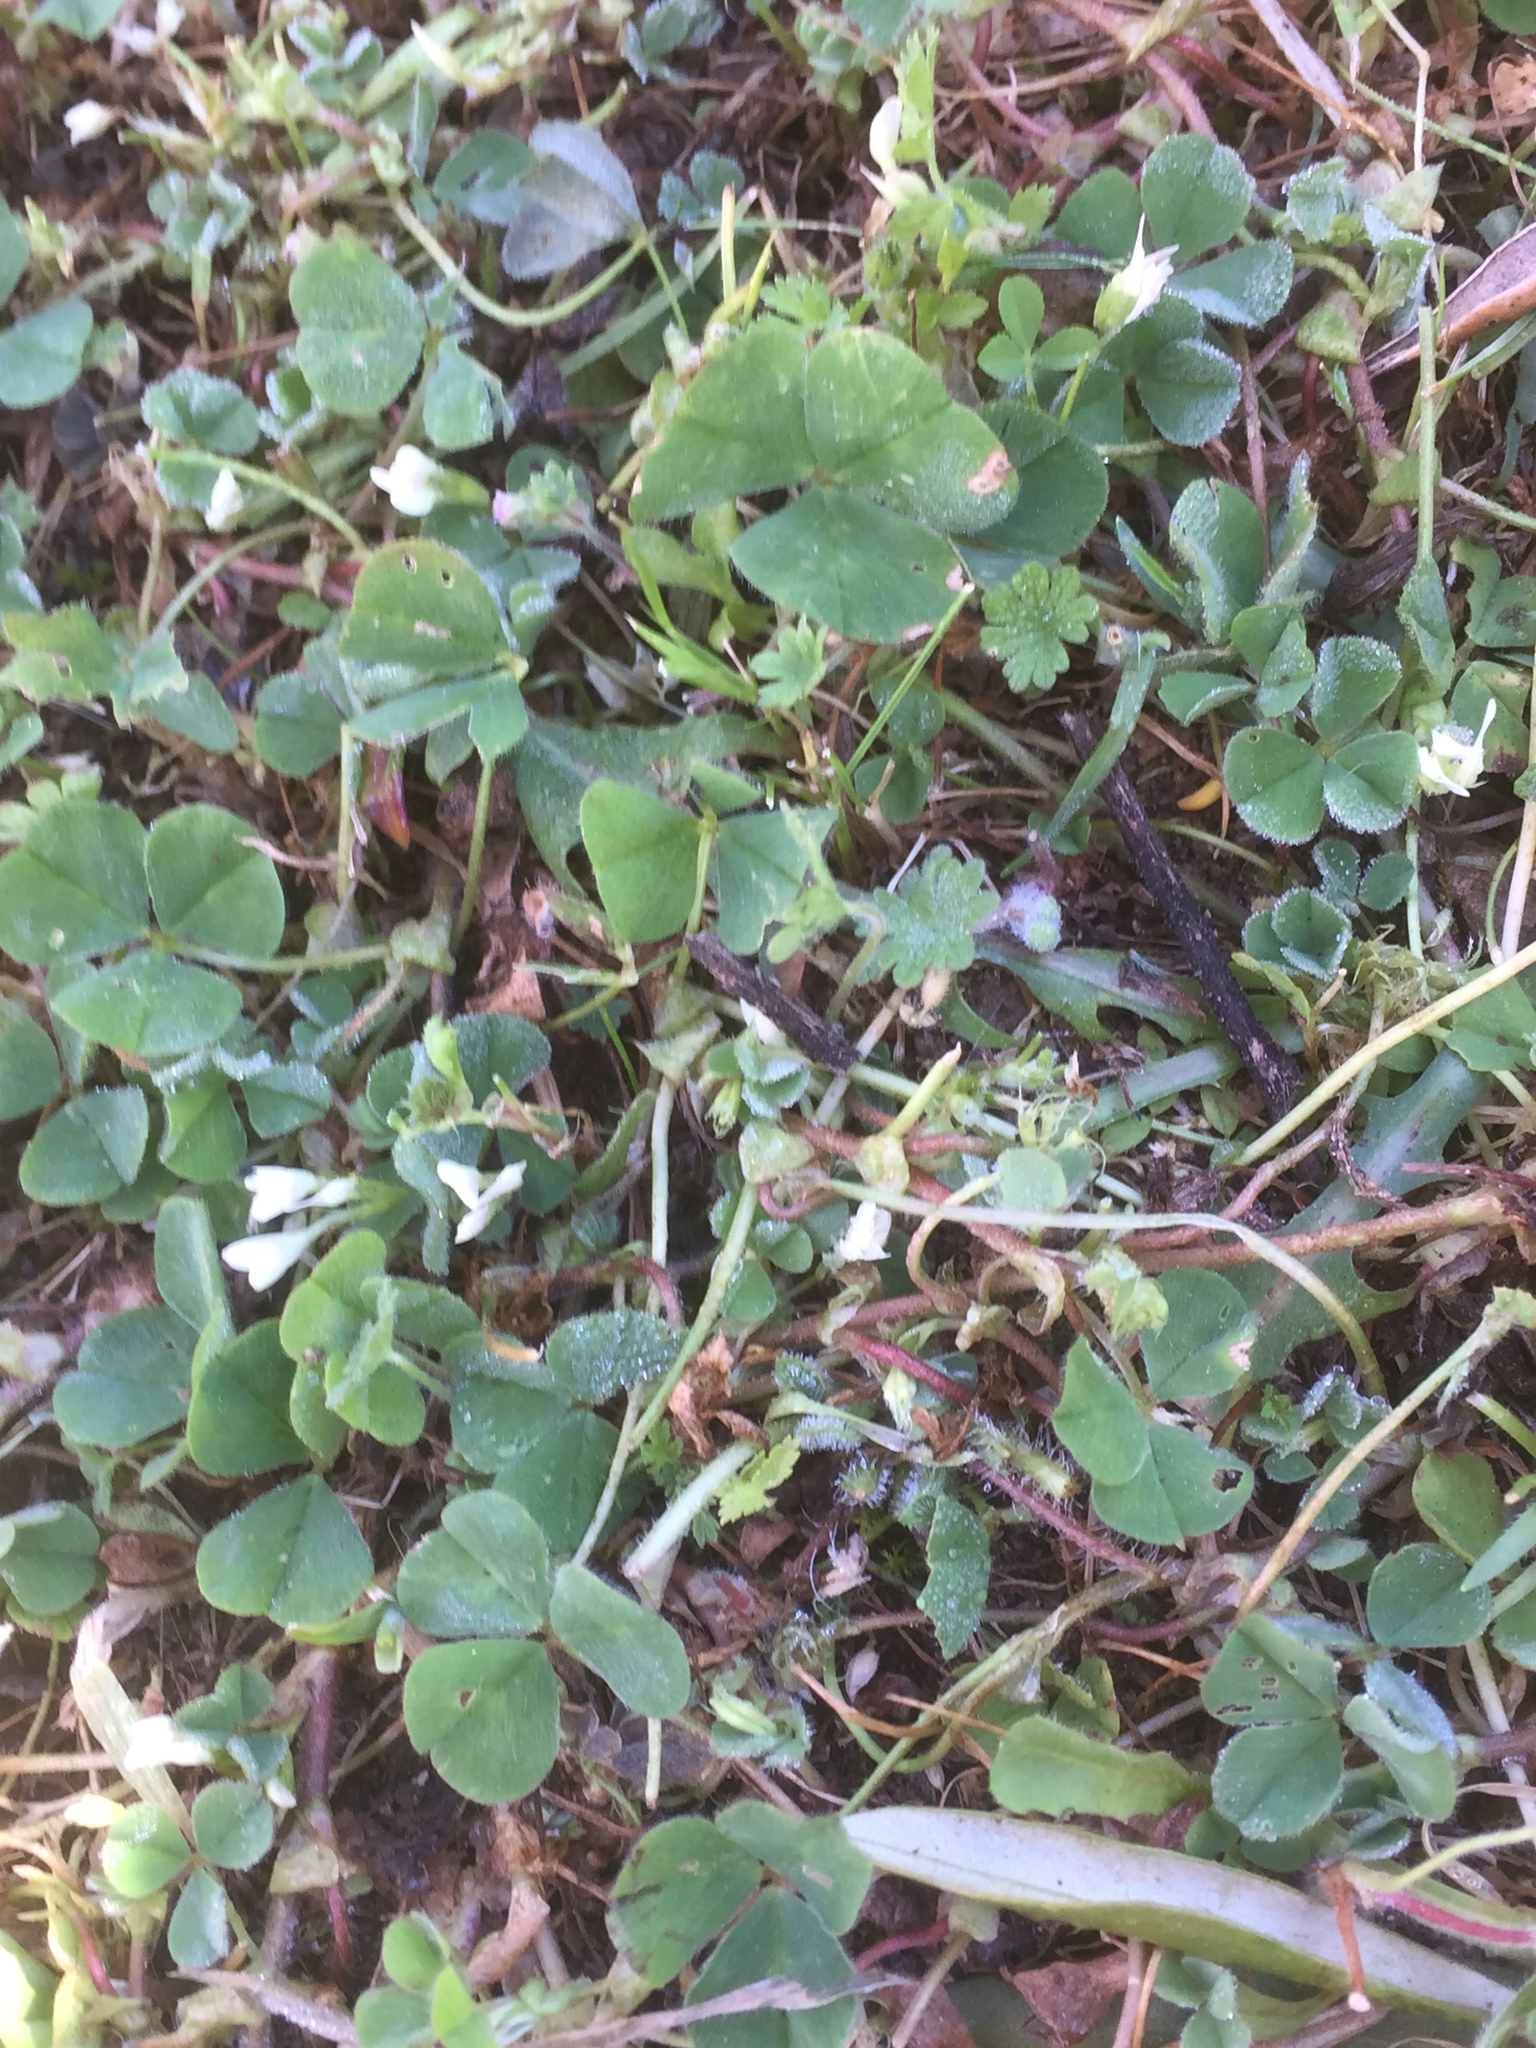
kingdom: Plantae
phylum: Tracheophyta
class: Magnoliopsida
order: Fabales
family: Fabaceae
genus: Trifolium
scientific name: Trifolium subterraneum
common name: Subterranean clover
